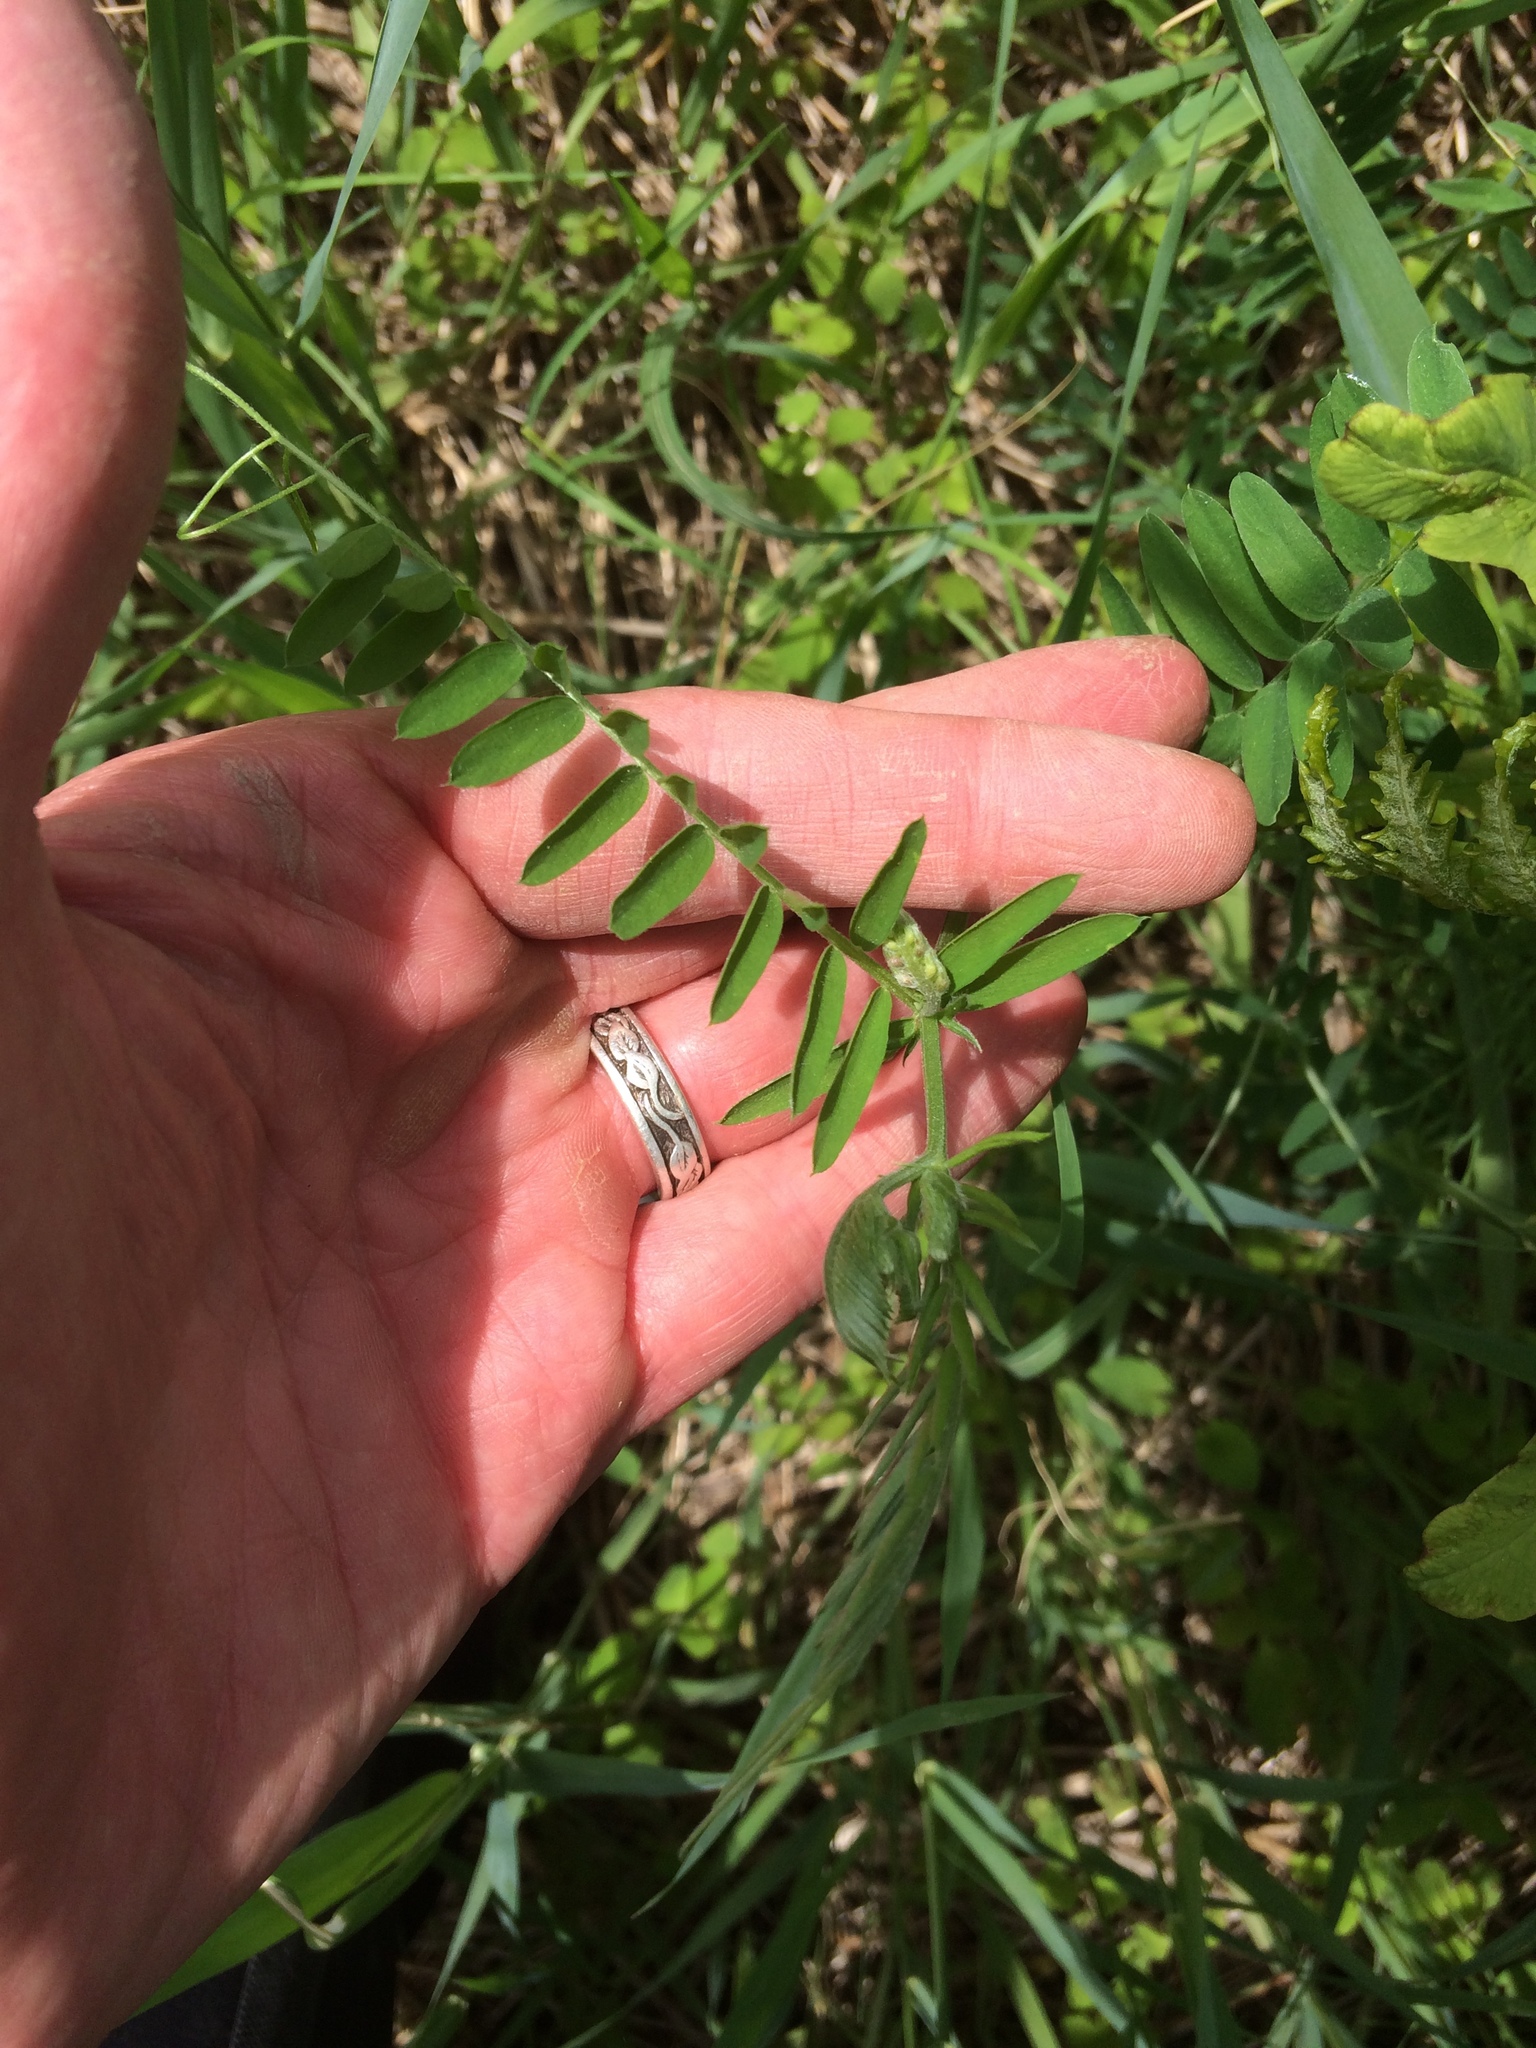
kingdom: Plantae
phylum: Tracheophyta
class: Magnoliopsida
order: Fabales
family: Fabaceae
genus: Vicia
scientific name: Vicia cracca
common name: Bird vetch
